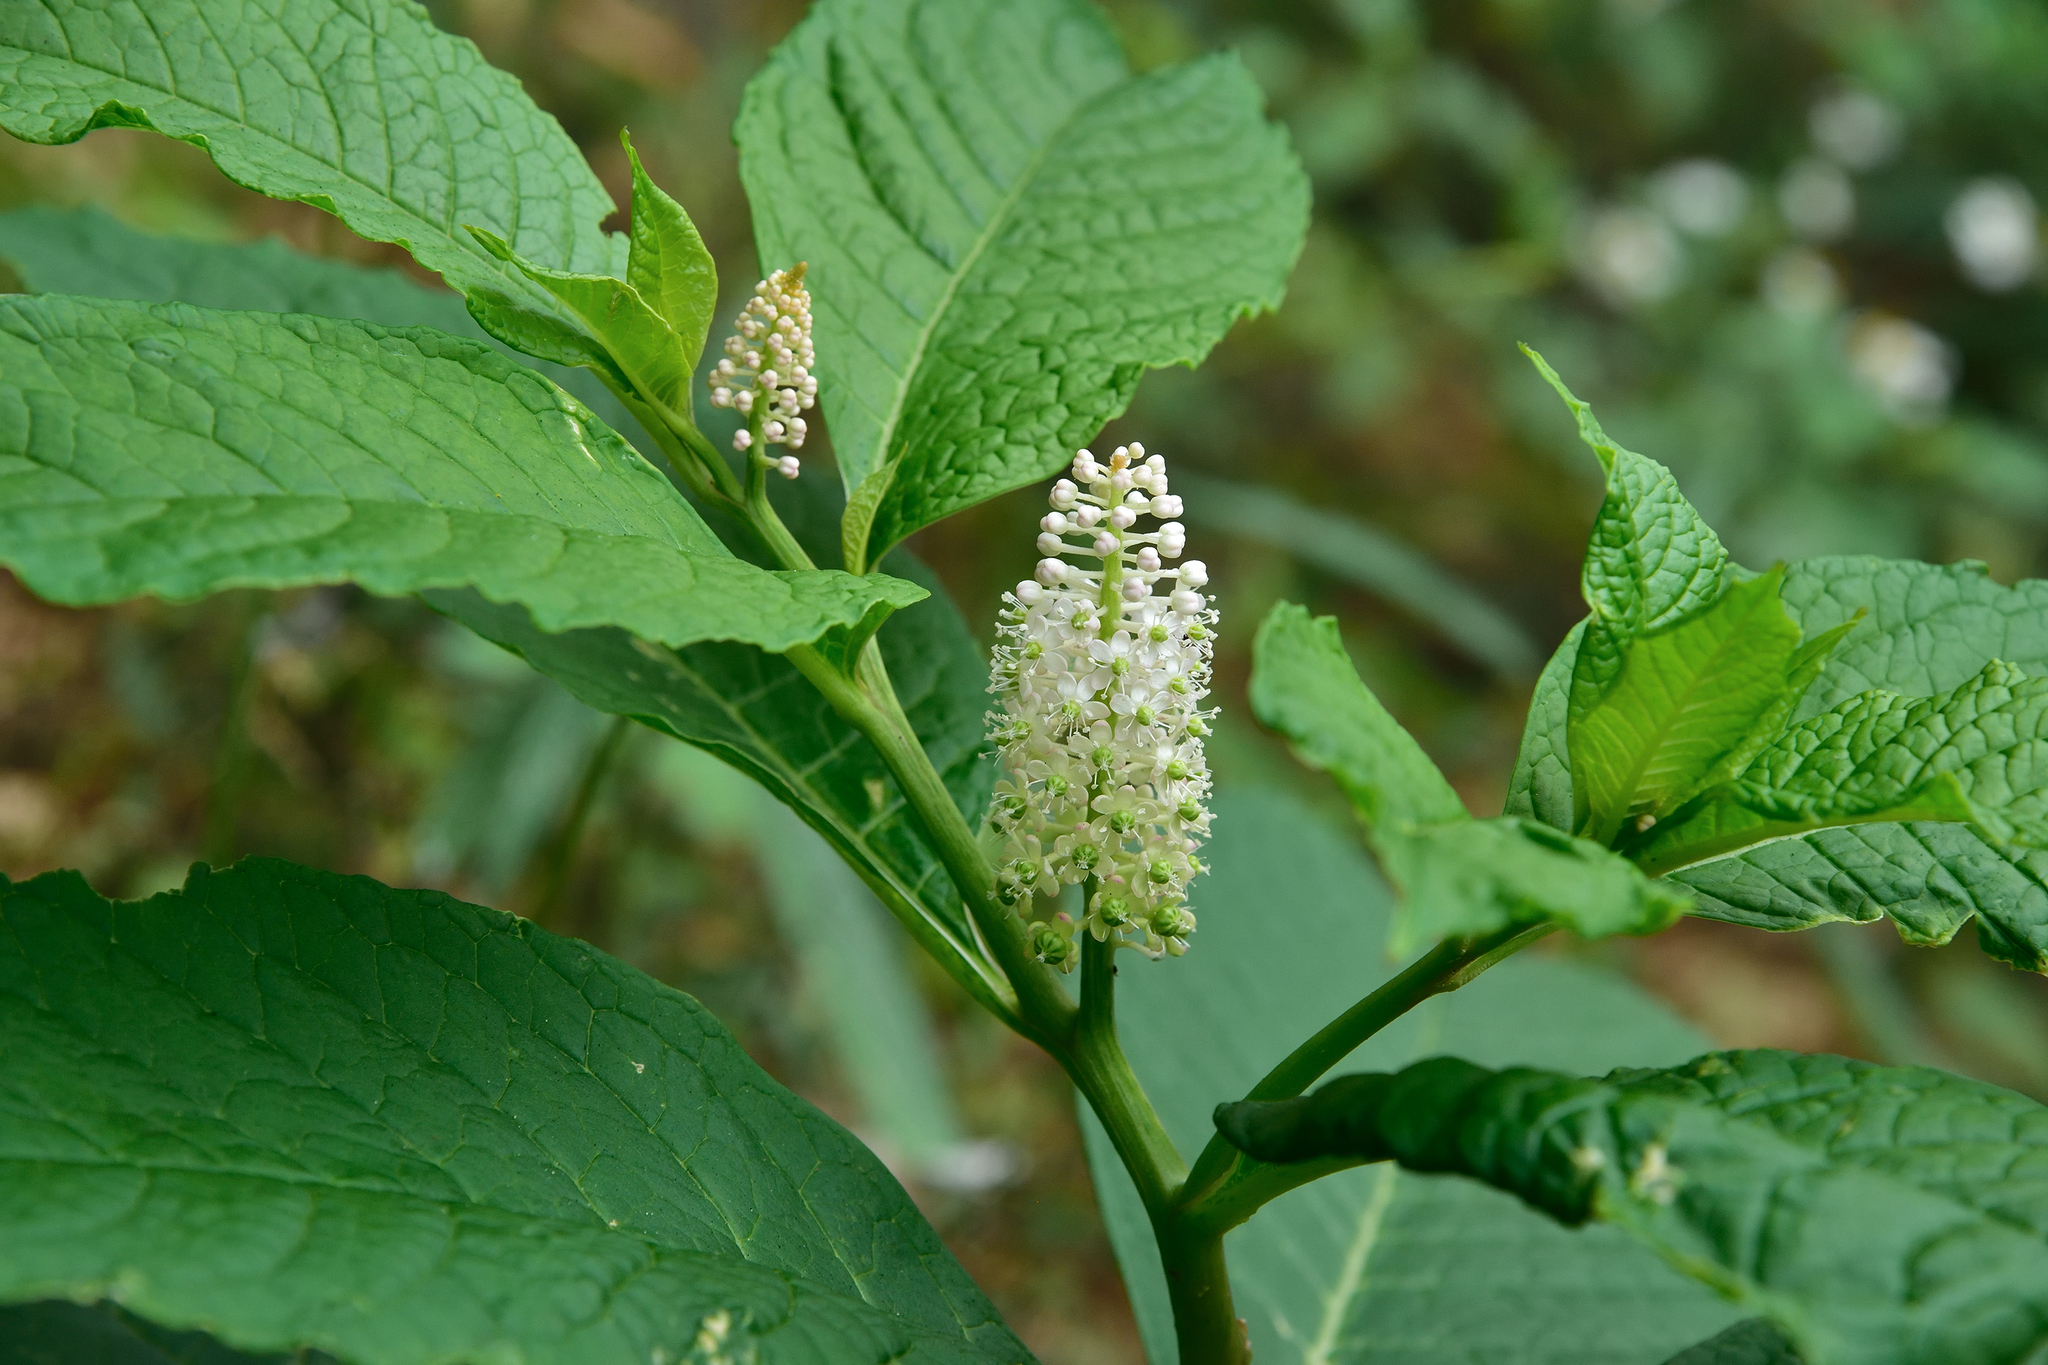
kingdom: Plantae
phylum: Tracheophyta
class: Magnoliopsida
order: Caryophyllales
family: Phytolaccaceae
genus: Phytolacca
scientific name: Phytolacca japonica
